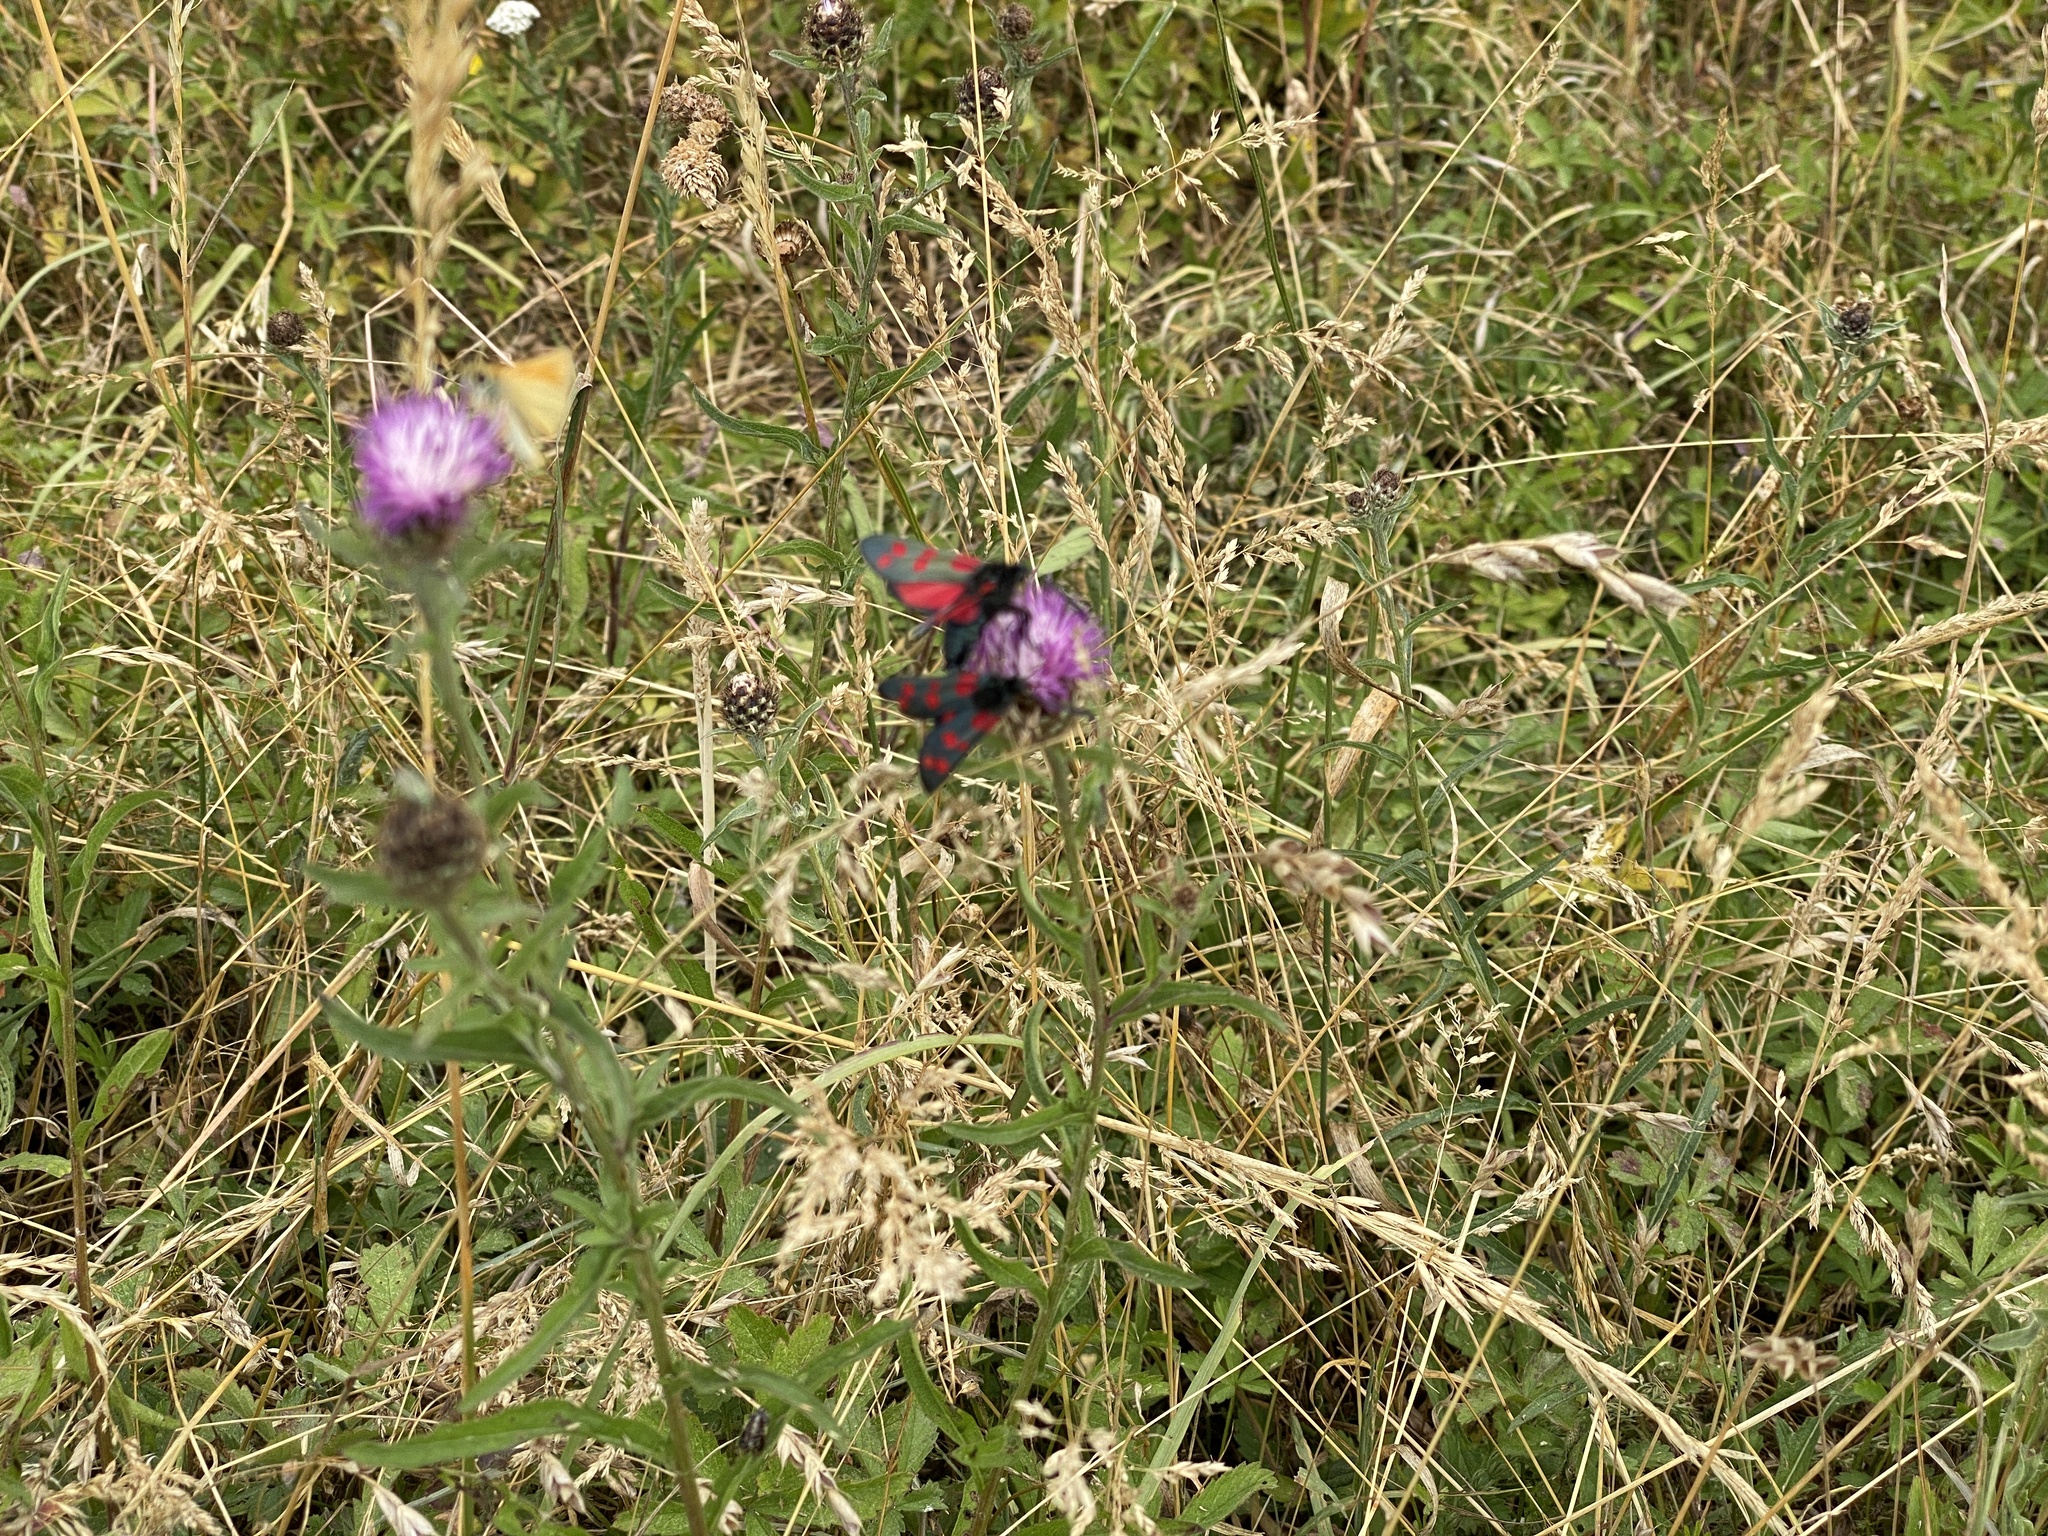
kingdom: Animalia
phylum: Arthropoda
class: Insecta
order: Lepidoptera
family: Zygaenidae
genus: Zygaena
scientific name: Zygaena filipendulae
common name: Six-spot burnet
